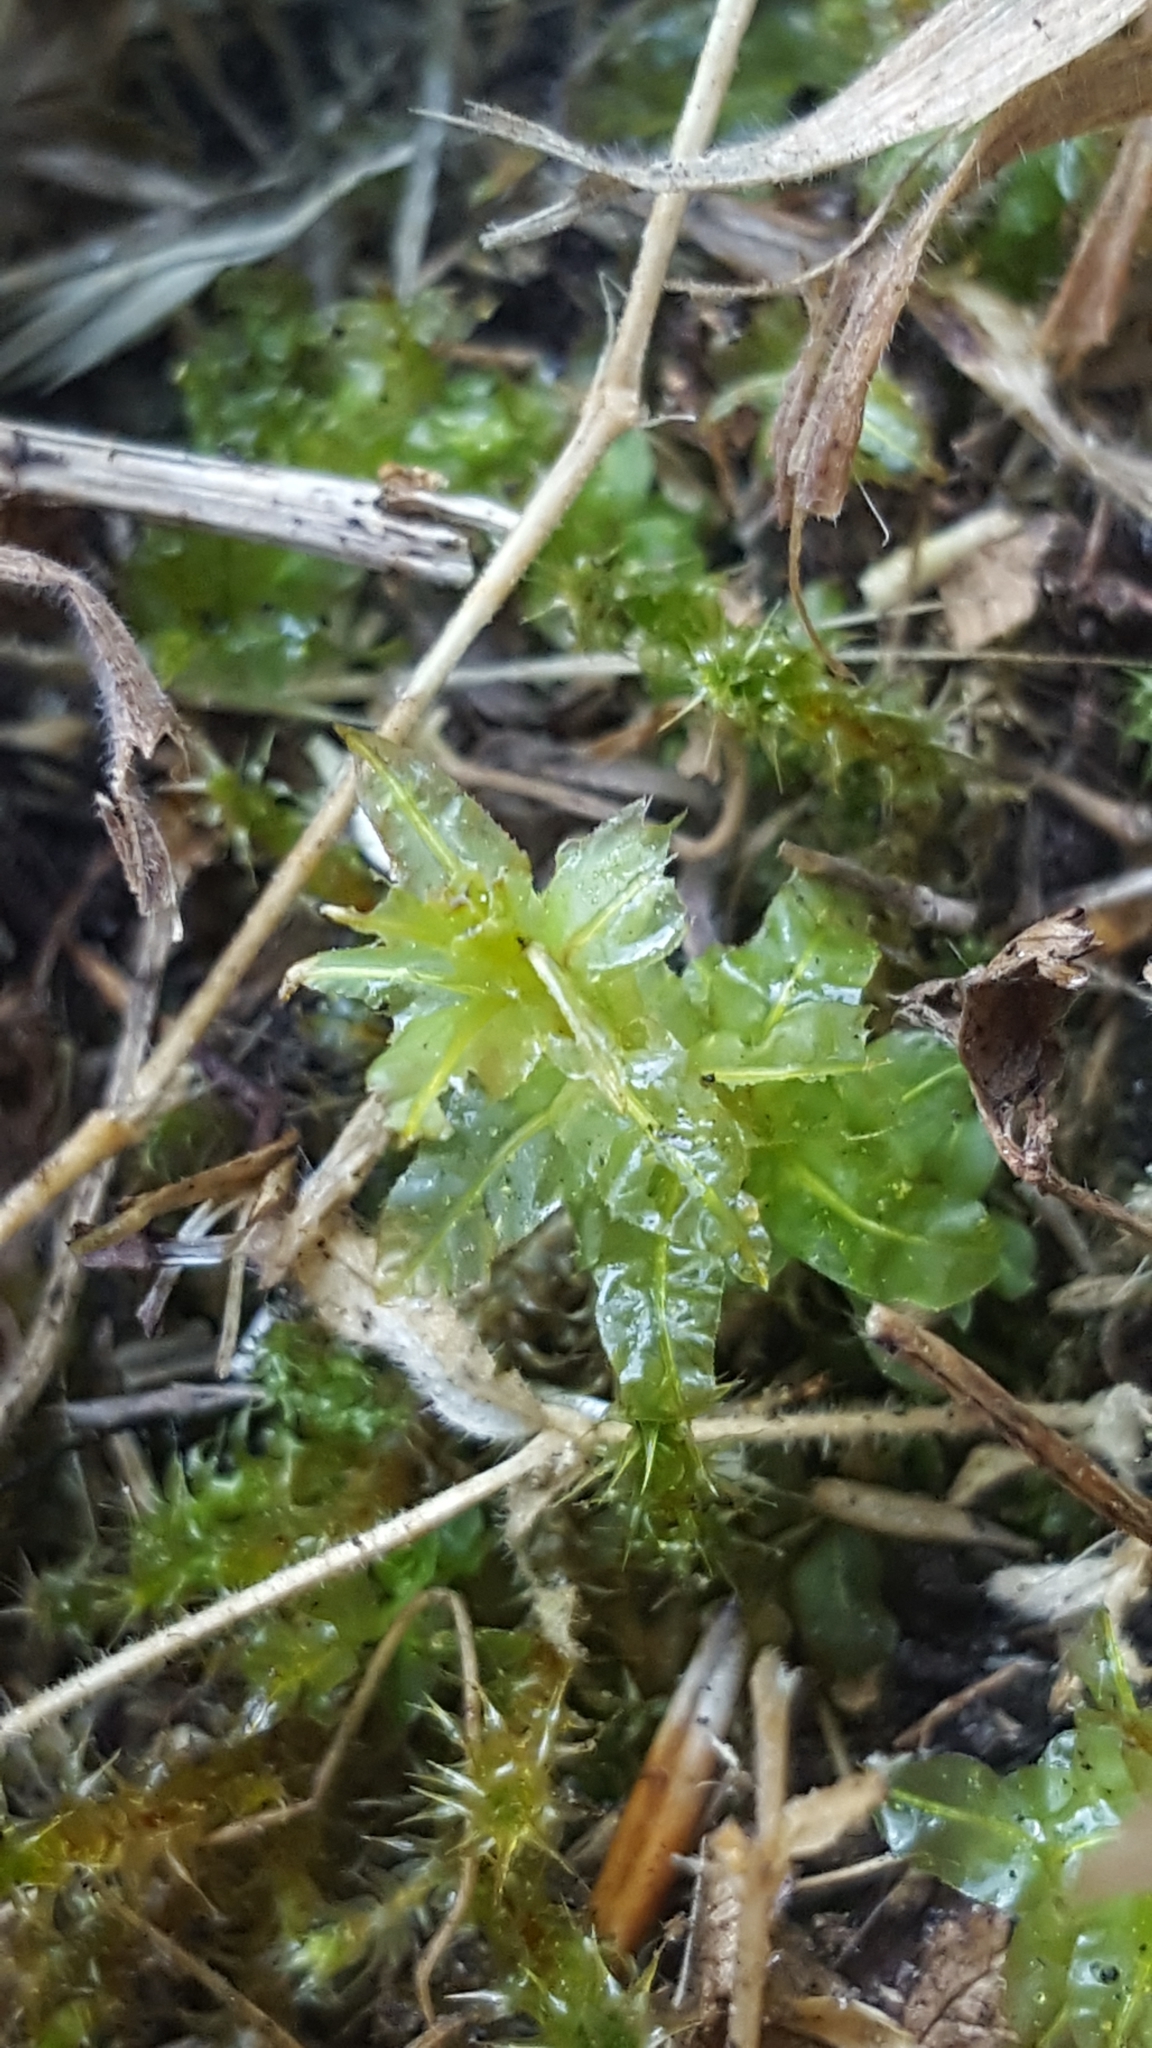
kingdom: Plantae
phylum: Bryophyta
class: Bryopsida
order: Bryales
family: Mniaceae
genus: Plagiomnium
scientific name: Plagiomnium undulatum
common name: Hart's-tongue thyme-moss
